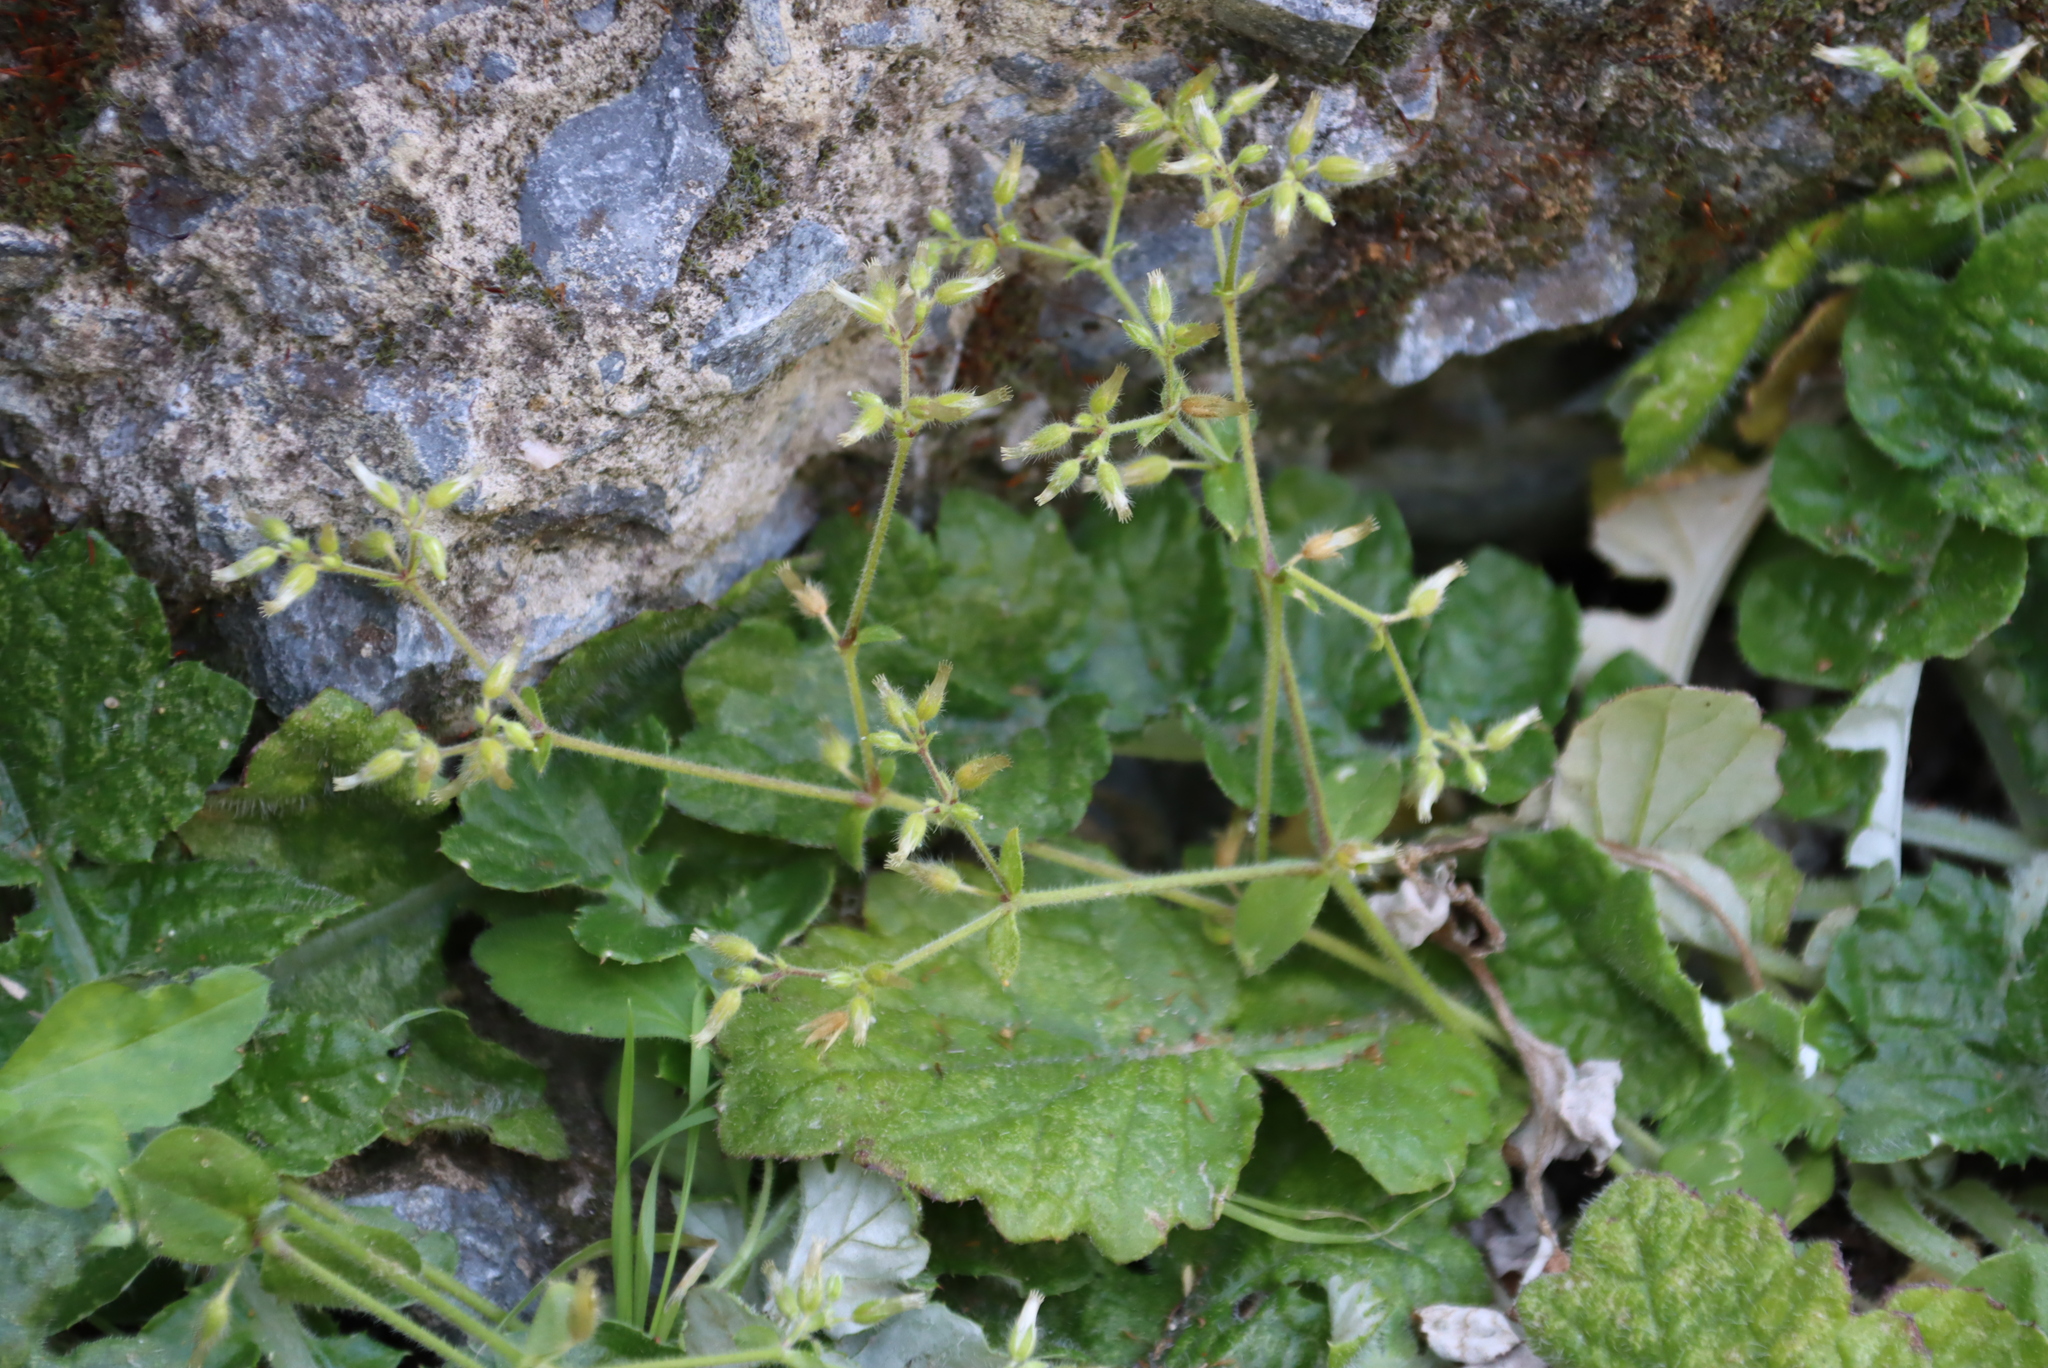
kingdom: Plantae
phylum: Tracheophyta
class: Magnoliopsida
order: Caryophyllales
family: Caryophyllaceae
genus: Cerastium
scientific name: Cerastium glomeratum
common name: Sticky chickweed
